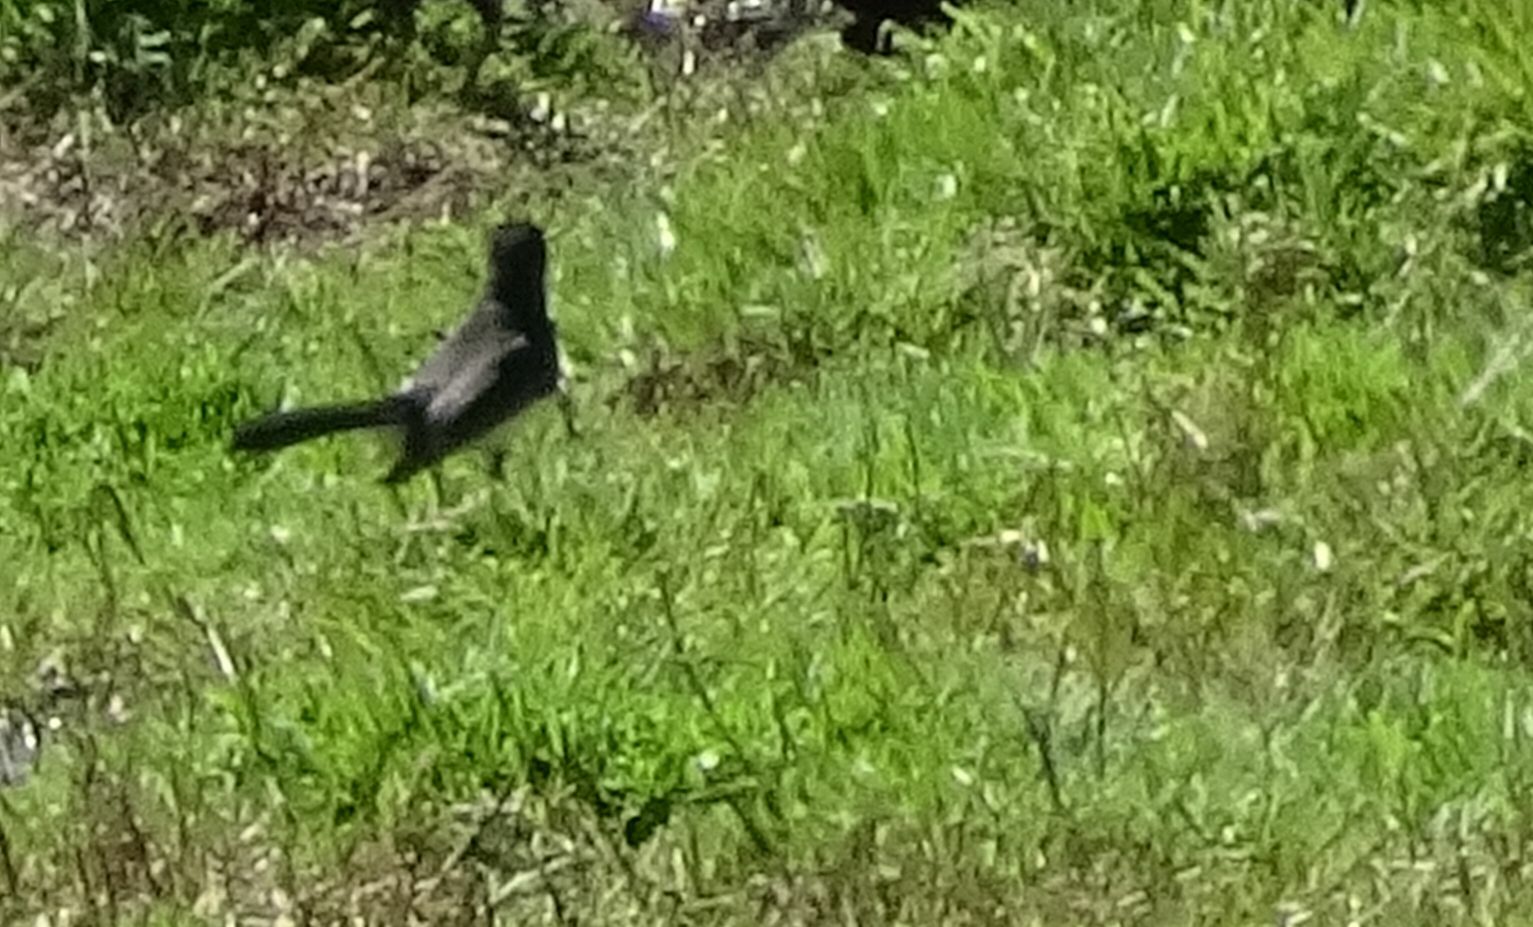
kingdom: Animalia
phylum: Chordata
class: Aves
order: Passeriformes
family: Rhipiduridae
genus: Rhipidura
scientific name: Rhipidura leucophrys
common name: Willie wagtail
